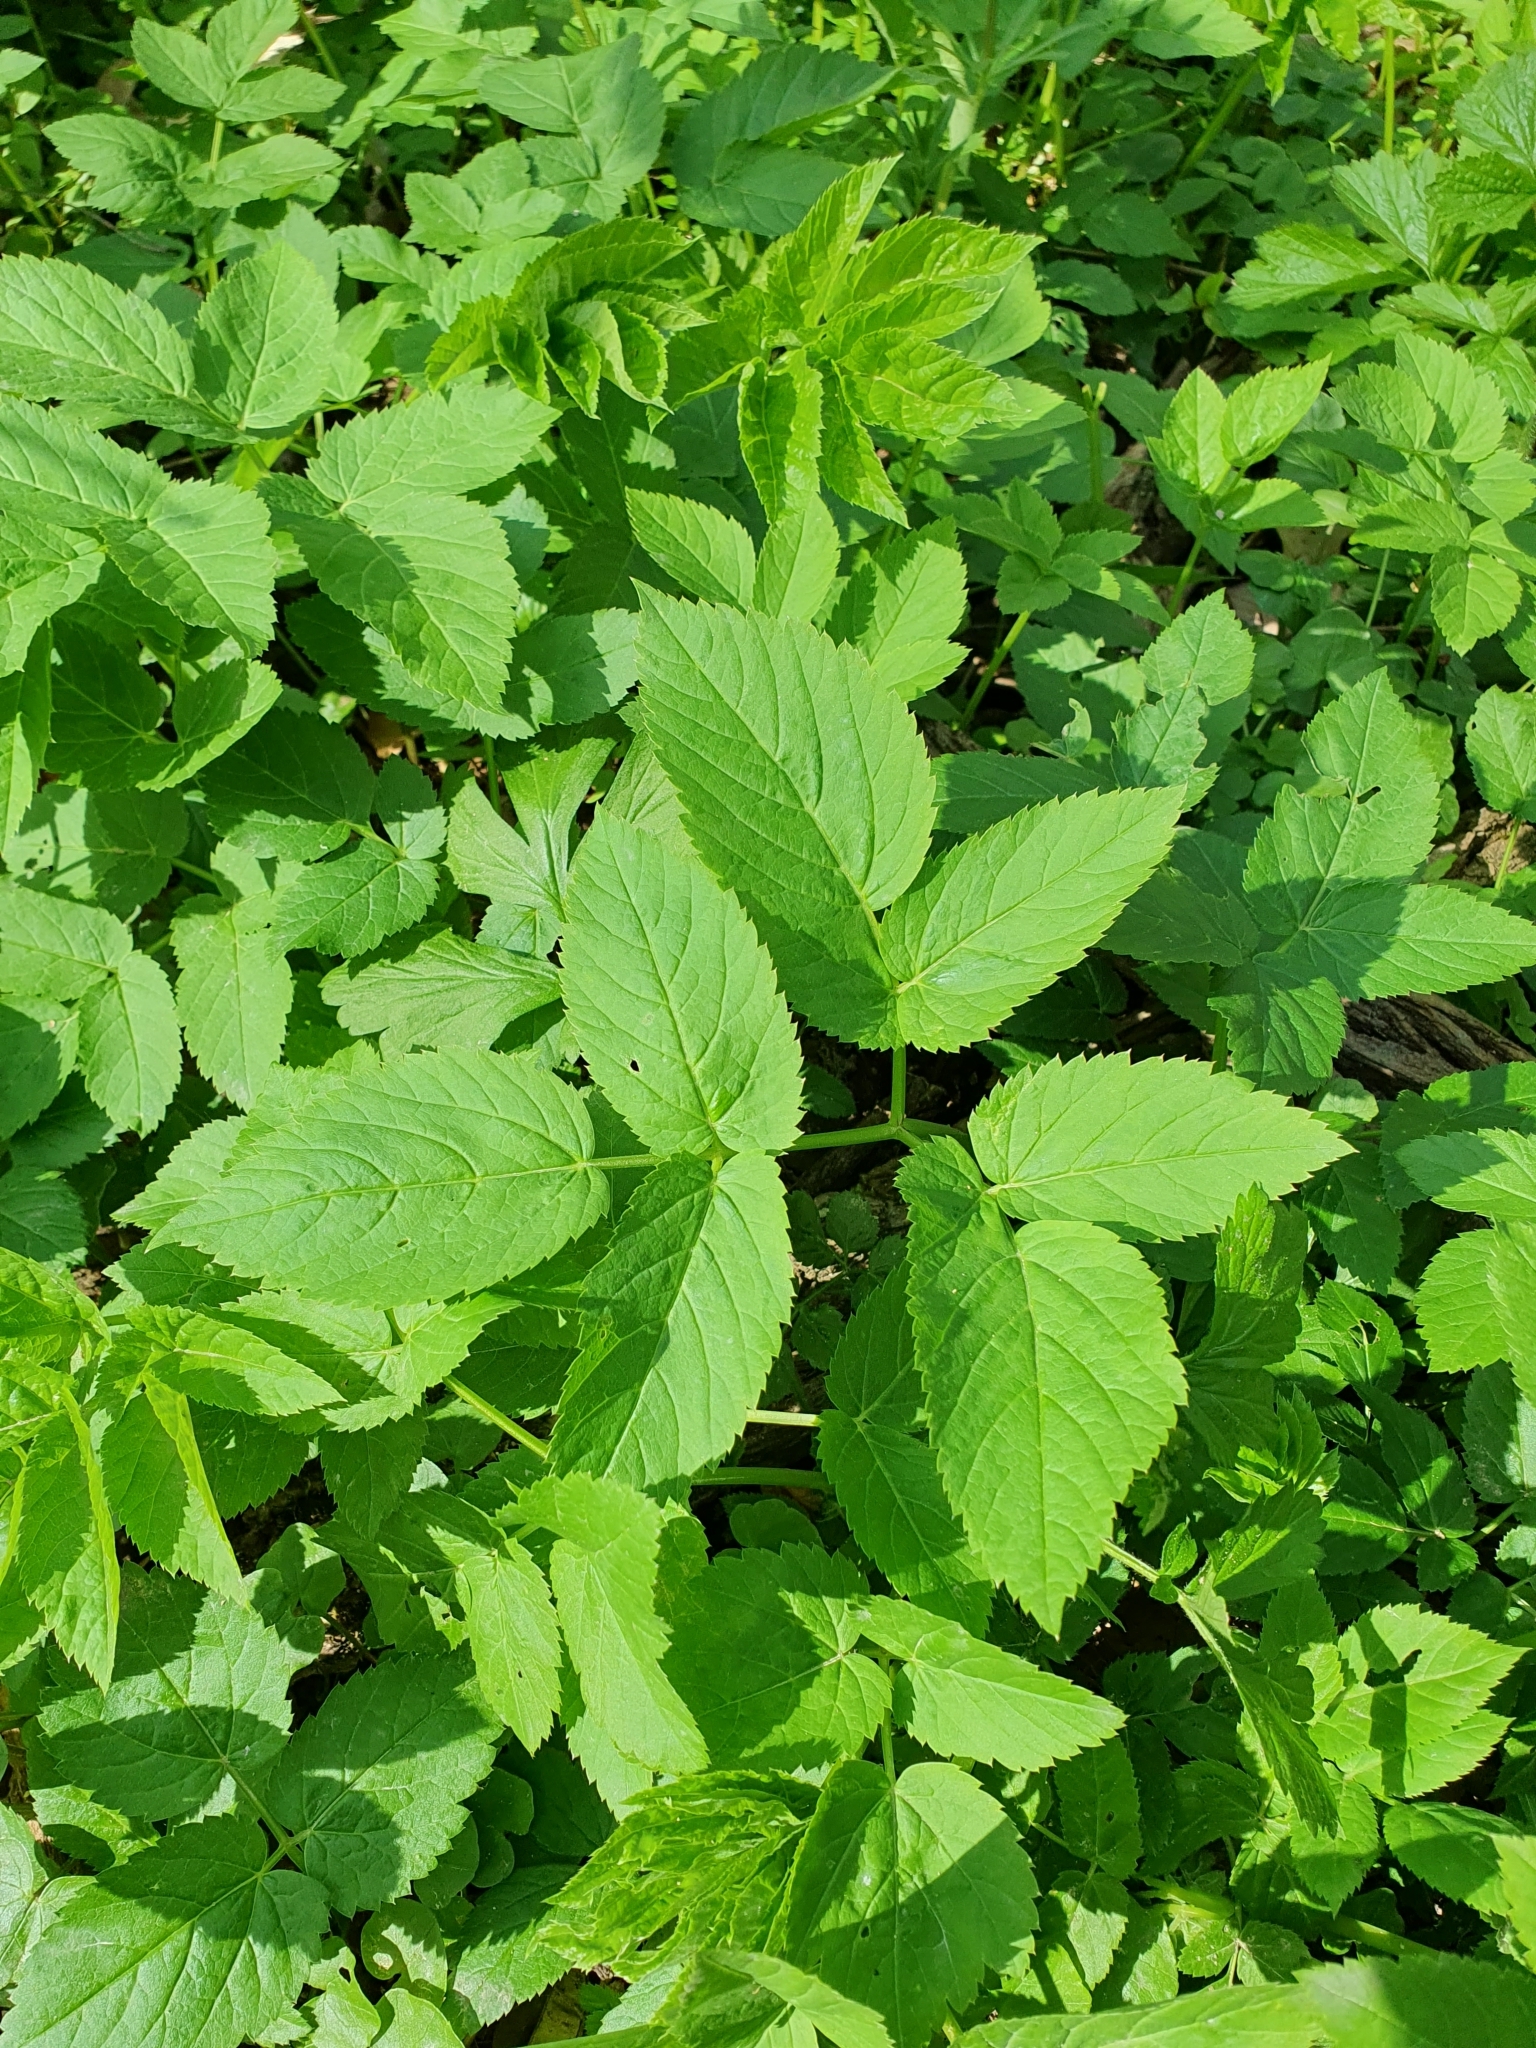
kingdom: Plantae
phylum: Tracheophyta
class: Magnoliopsida
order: Apiales
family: Apiaceae
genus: Aegopodium
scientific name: Aegopodium podagraria
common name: Ground-elder
